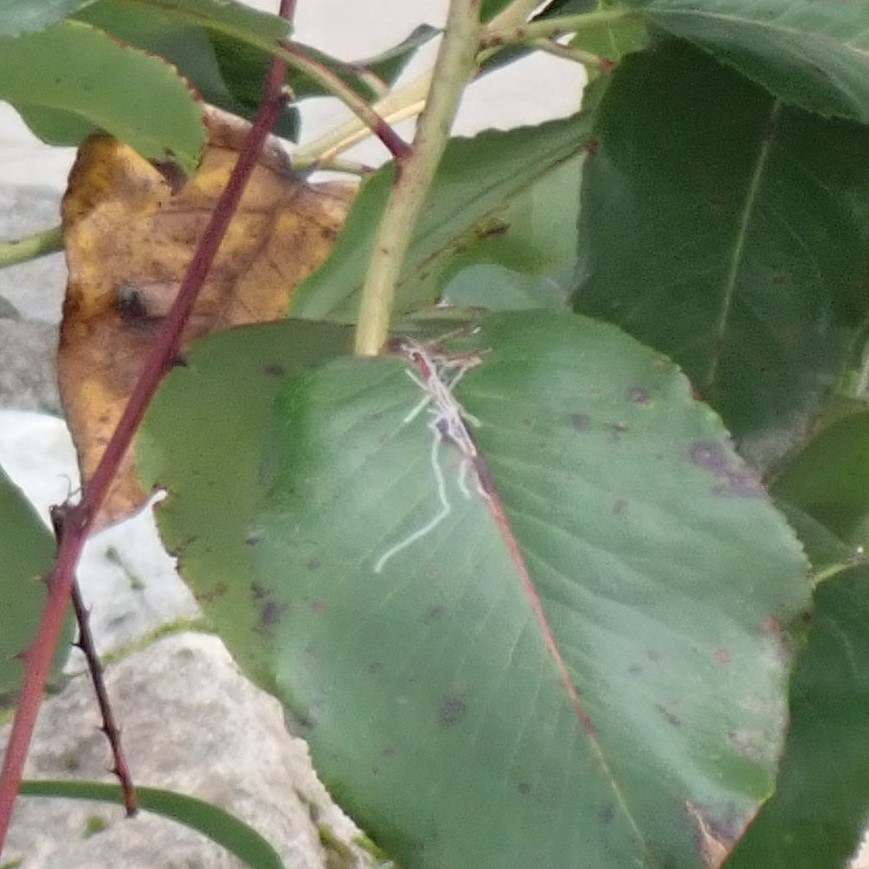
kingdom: Animalia
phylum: Arthropoda
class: Insecta
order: Lepidoptera
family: Gracillariidae
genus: Marmara
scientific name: Marmara arbutiella
